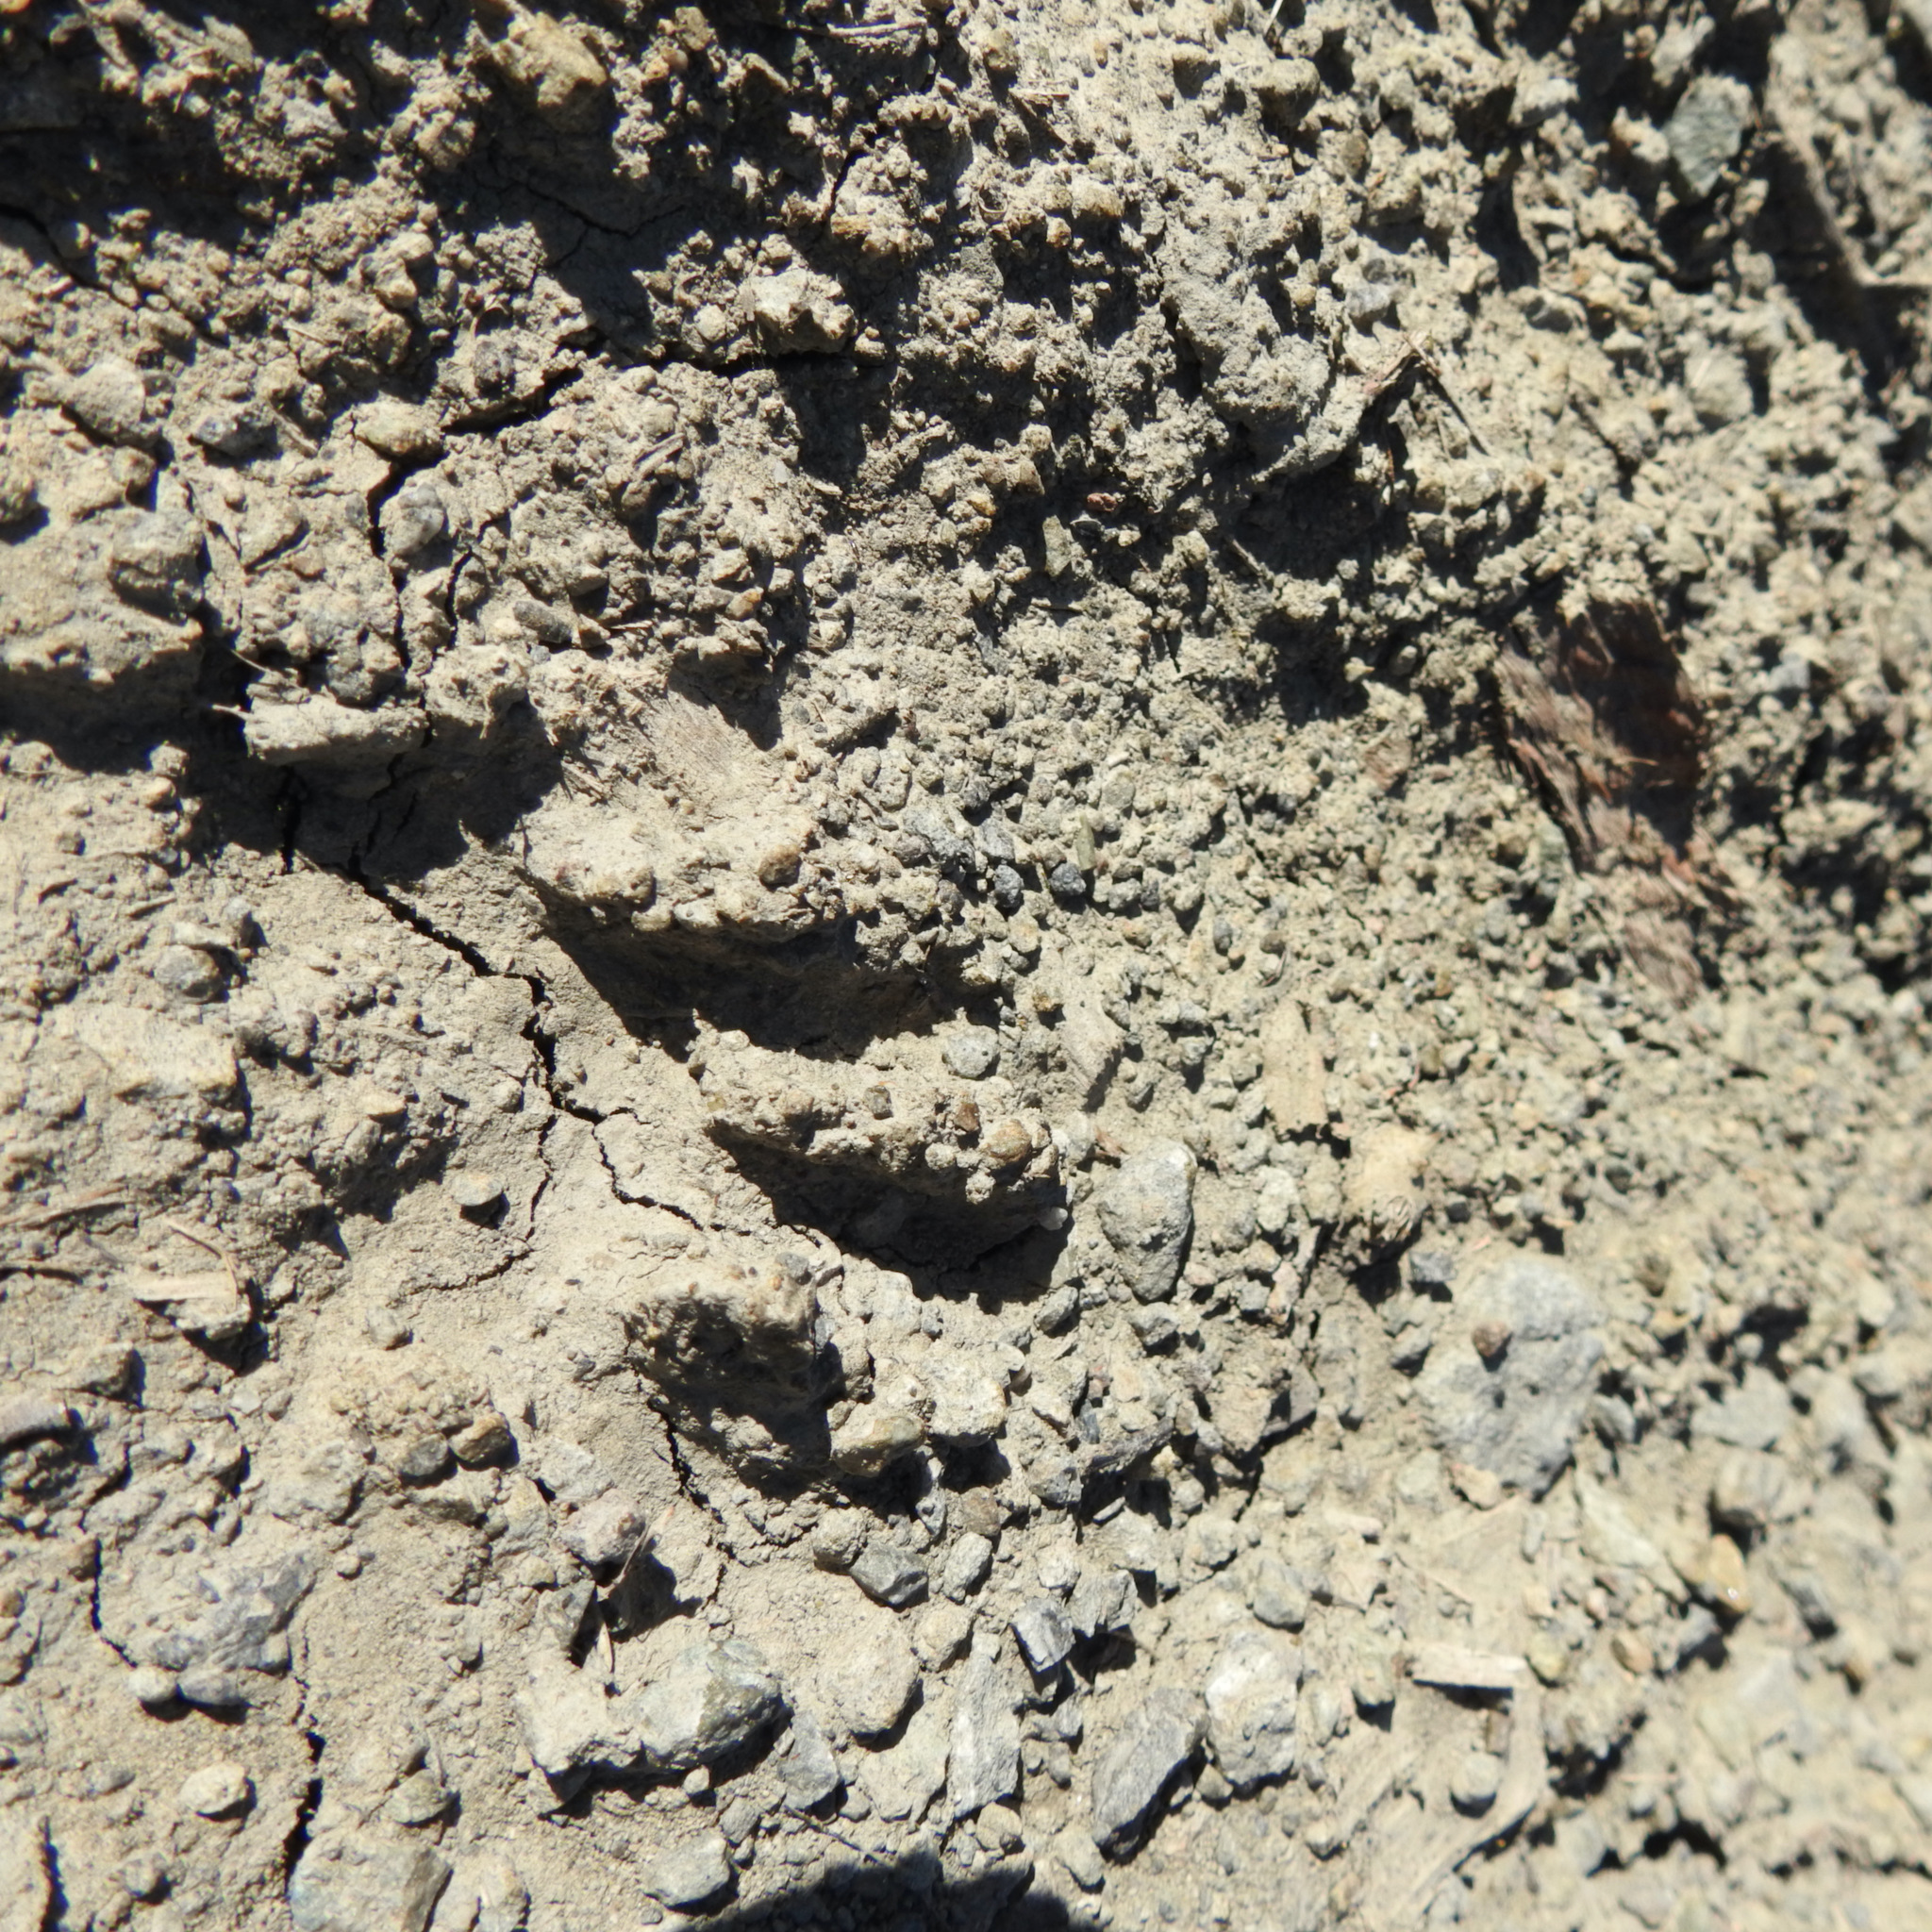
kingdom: Animalia
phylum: Chordata
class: Mammalia
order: Carnivora
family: Procyonidae
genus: Procyon
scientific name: Procyon lotor
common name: Raccoon
